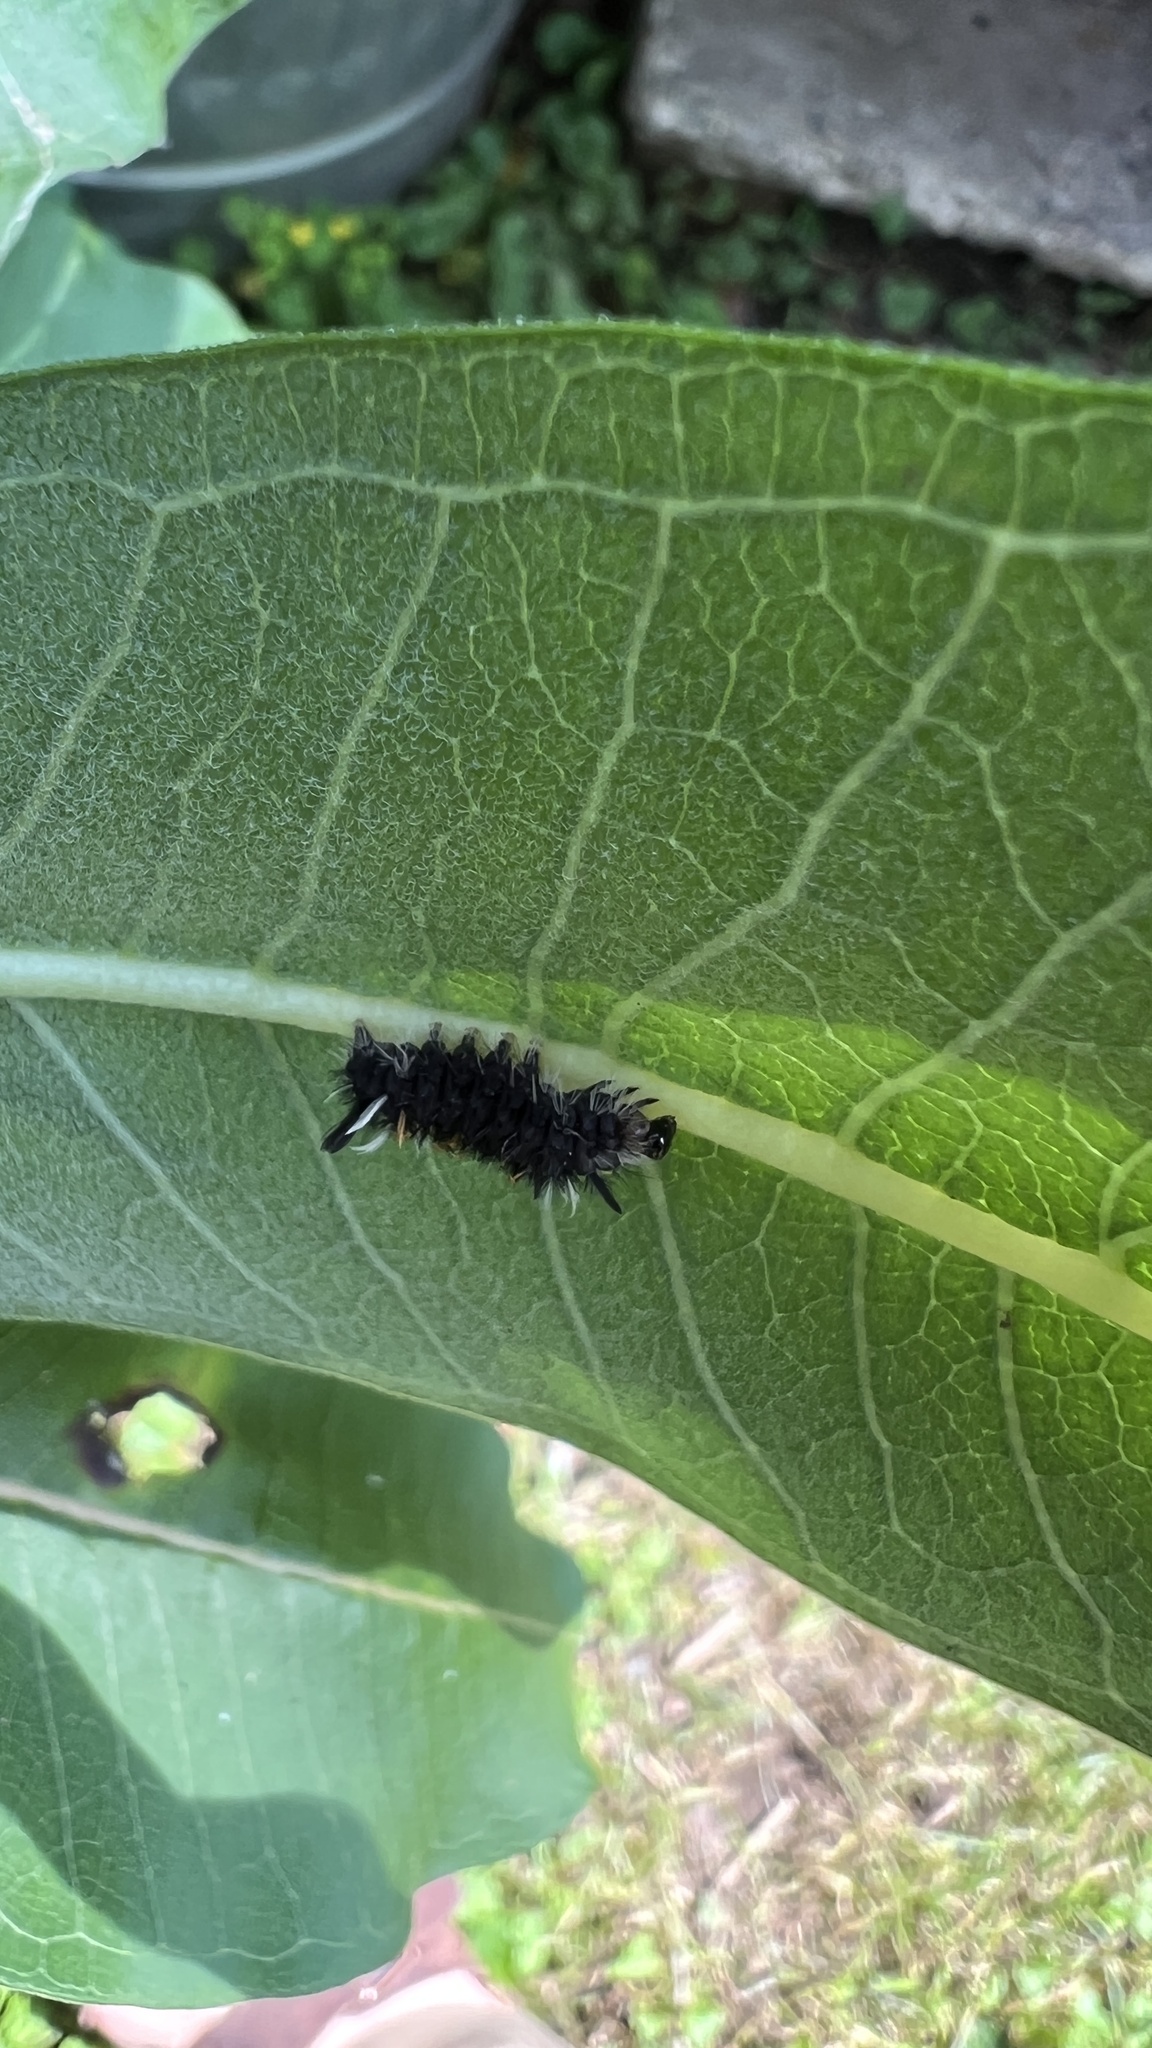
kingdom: Animalia
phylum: Arthropoda
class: Insecta
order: Lepidoptera
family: Erebidae
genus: Euchaetes
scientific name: Euchaetes egle
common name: Milkweed tussock moth
